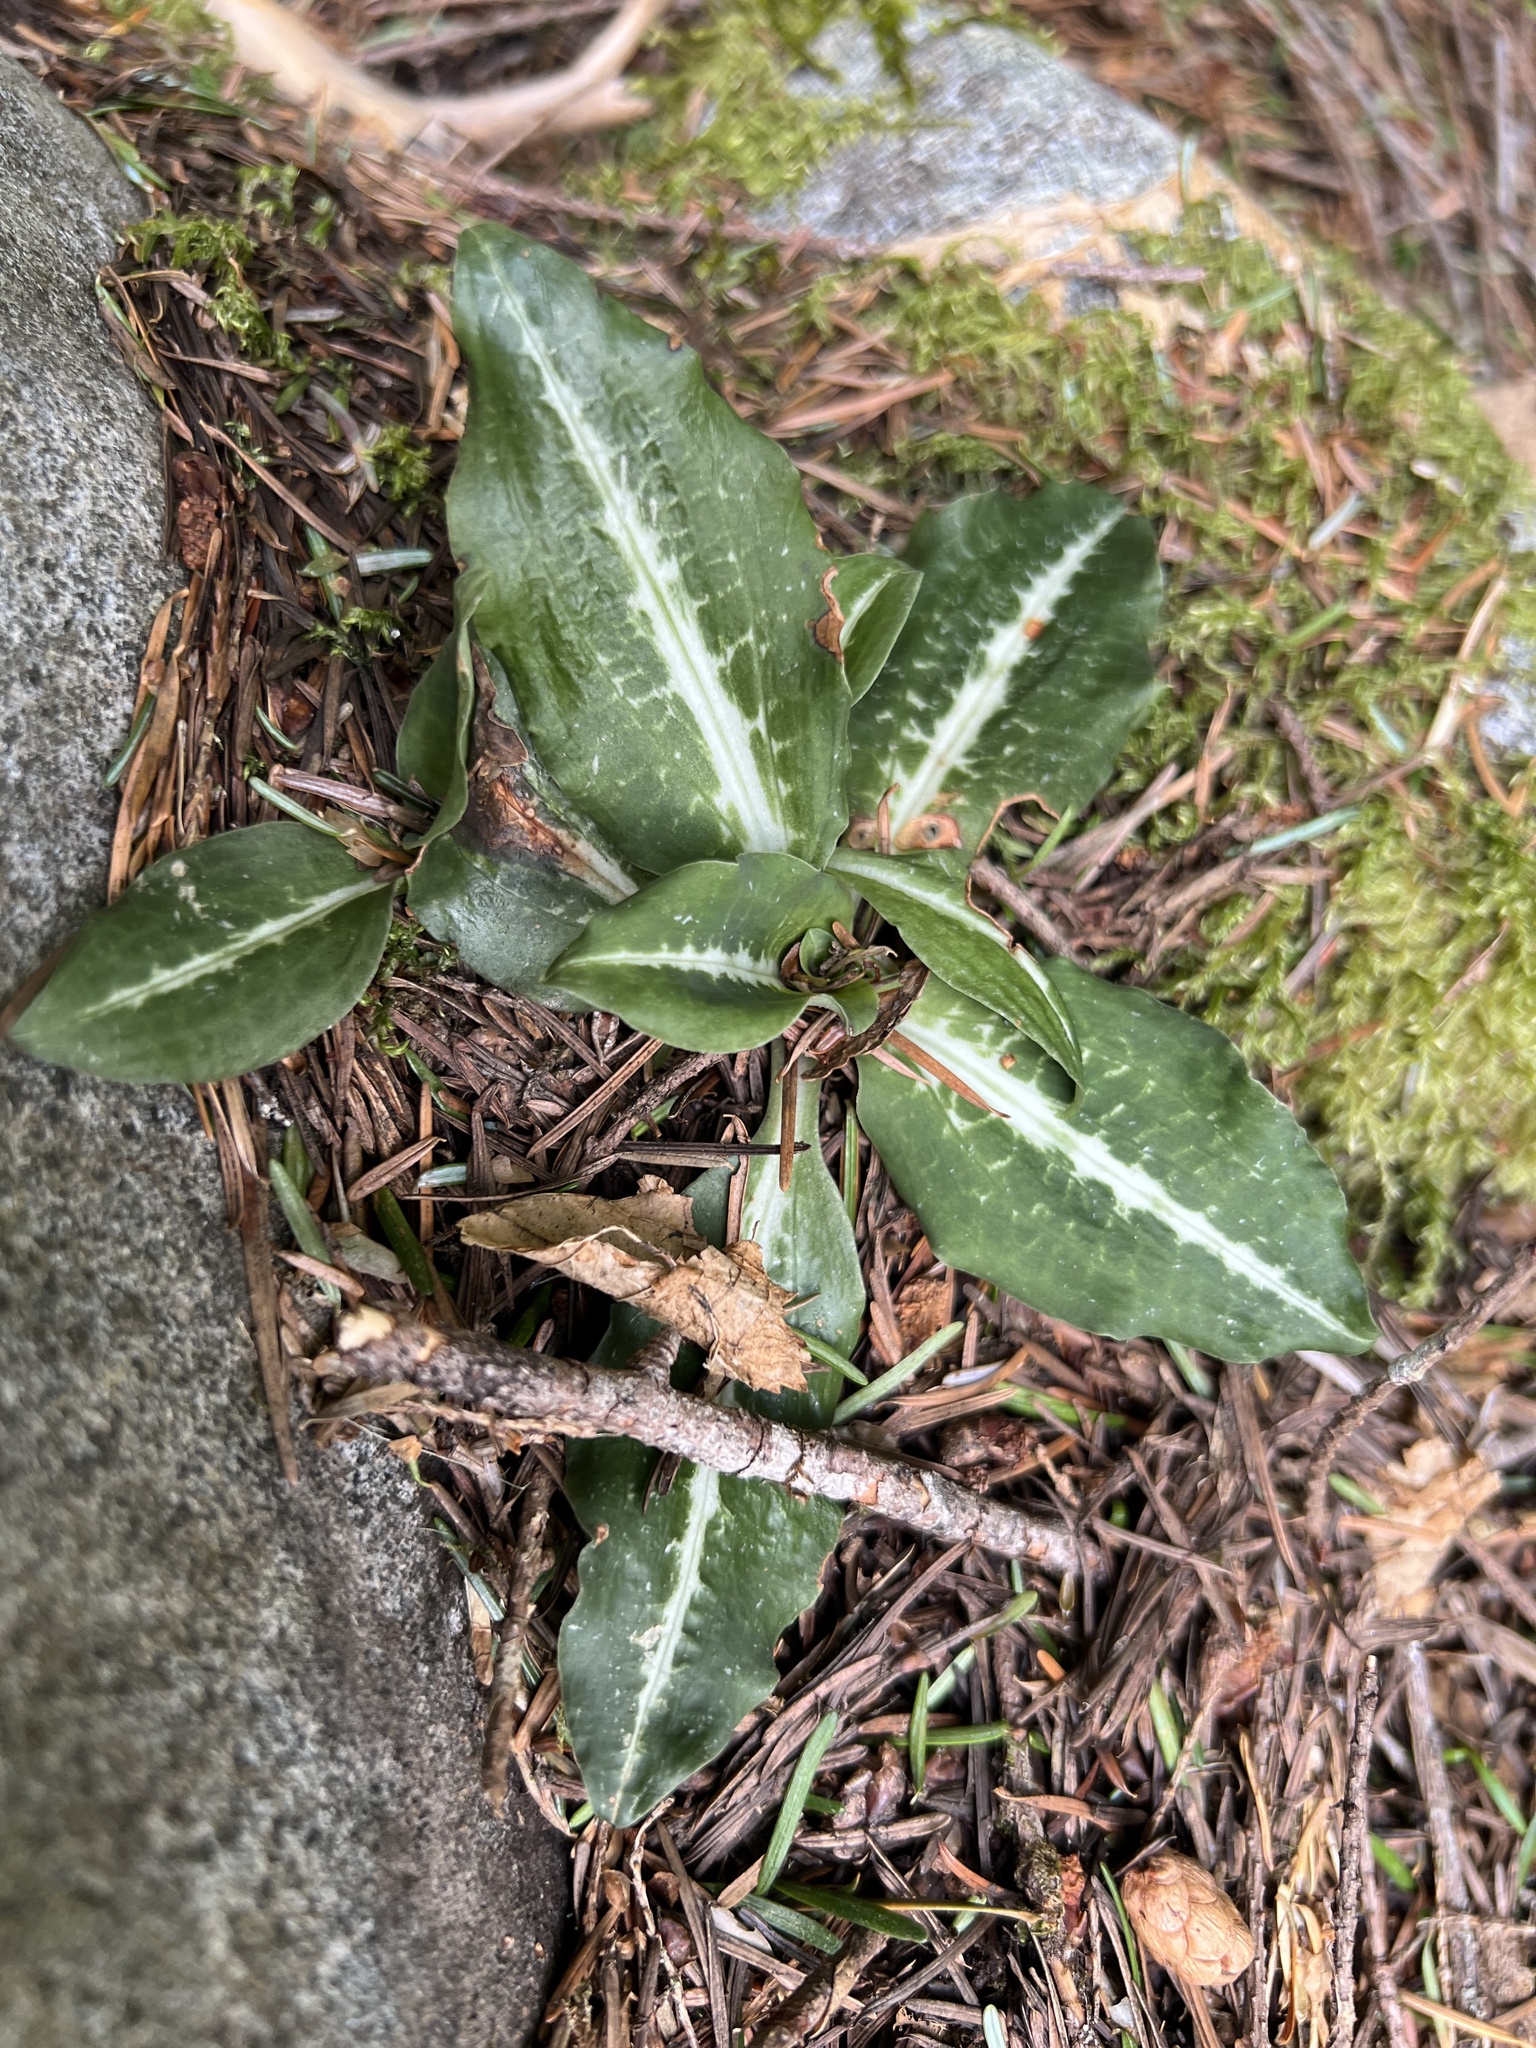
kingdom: Plantae
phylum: Tracheophyta
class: Liliopsida
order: Asparagales
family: Orchidaceae
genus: Goodyera
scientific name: Goodyera oblongifolia
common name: Giant rattlesnake-plantain
